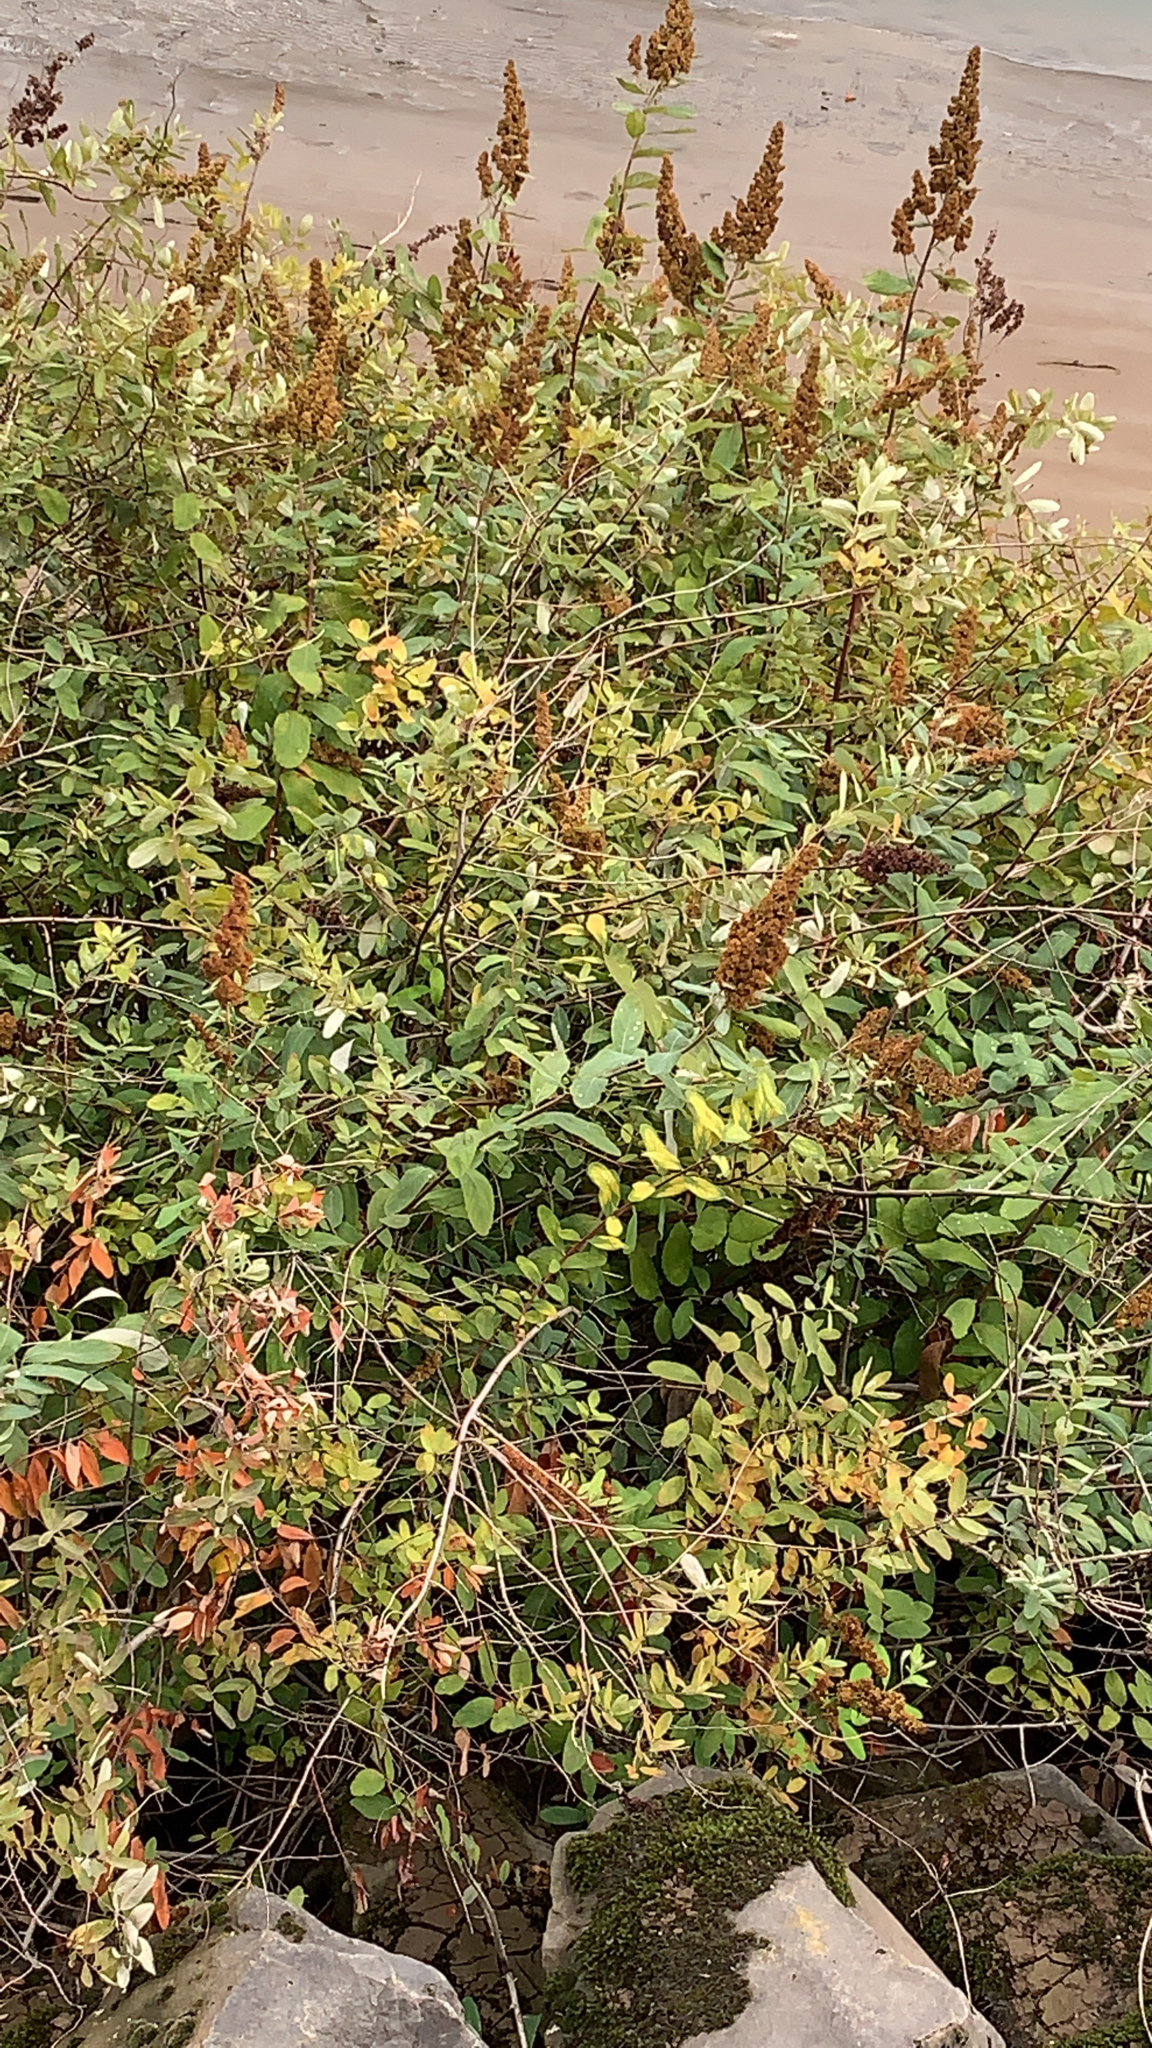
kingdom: Plantae
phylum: Tracheophyta
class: Magnoliopsida
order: Rosales
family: Rosaceae
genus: Spiraea
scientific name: Spiraea douglasii
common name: Steeplebush
